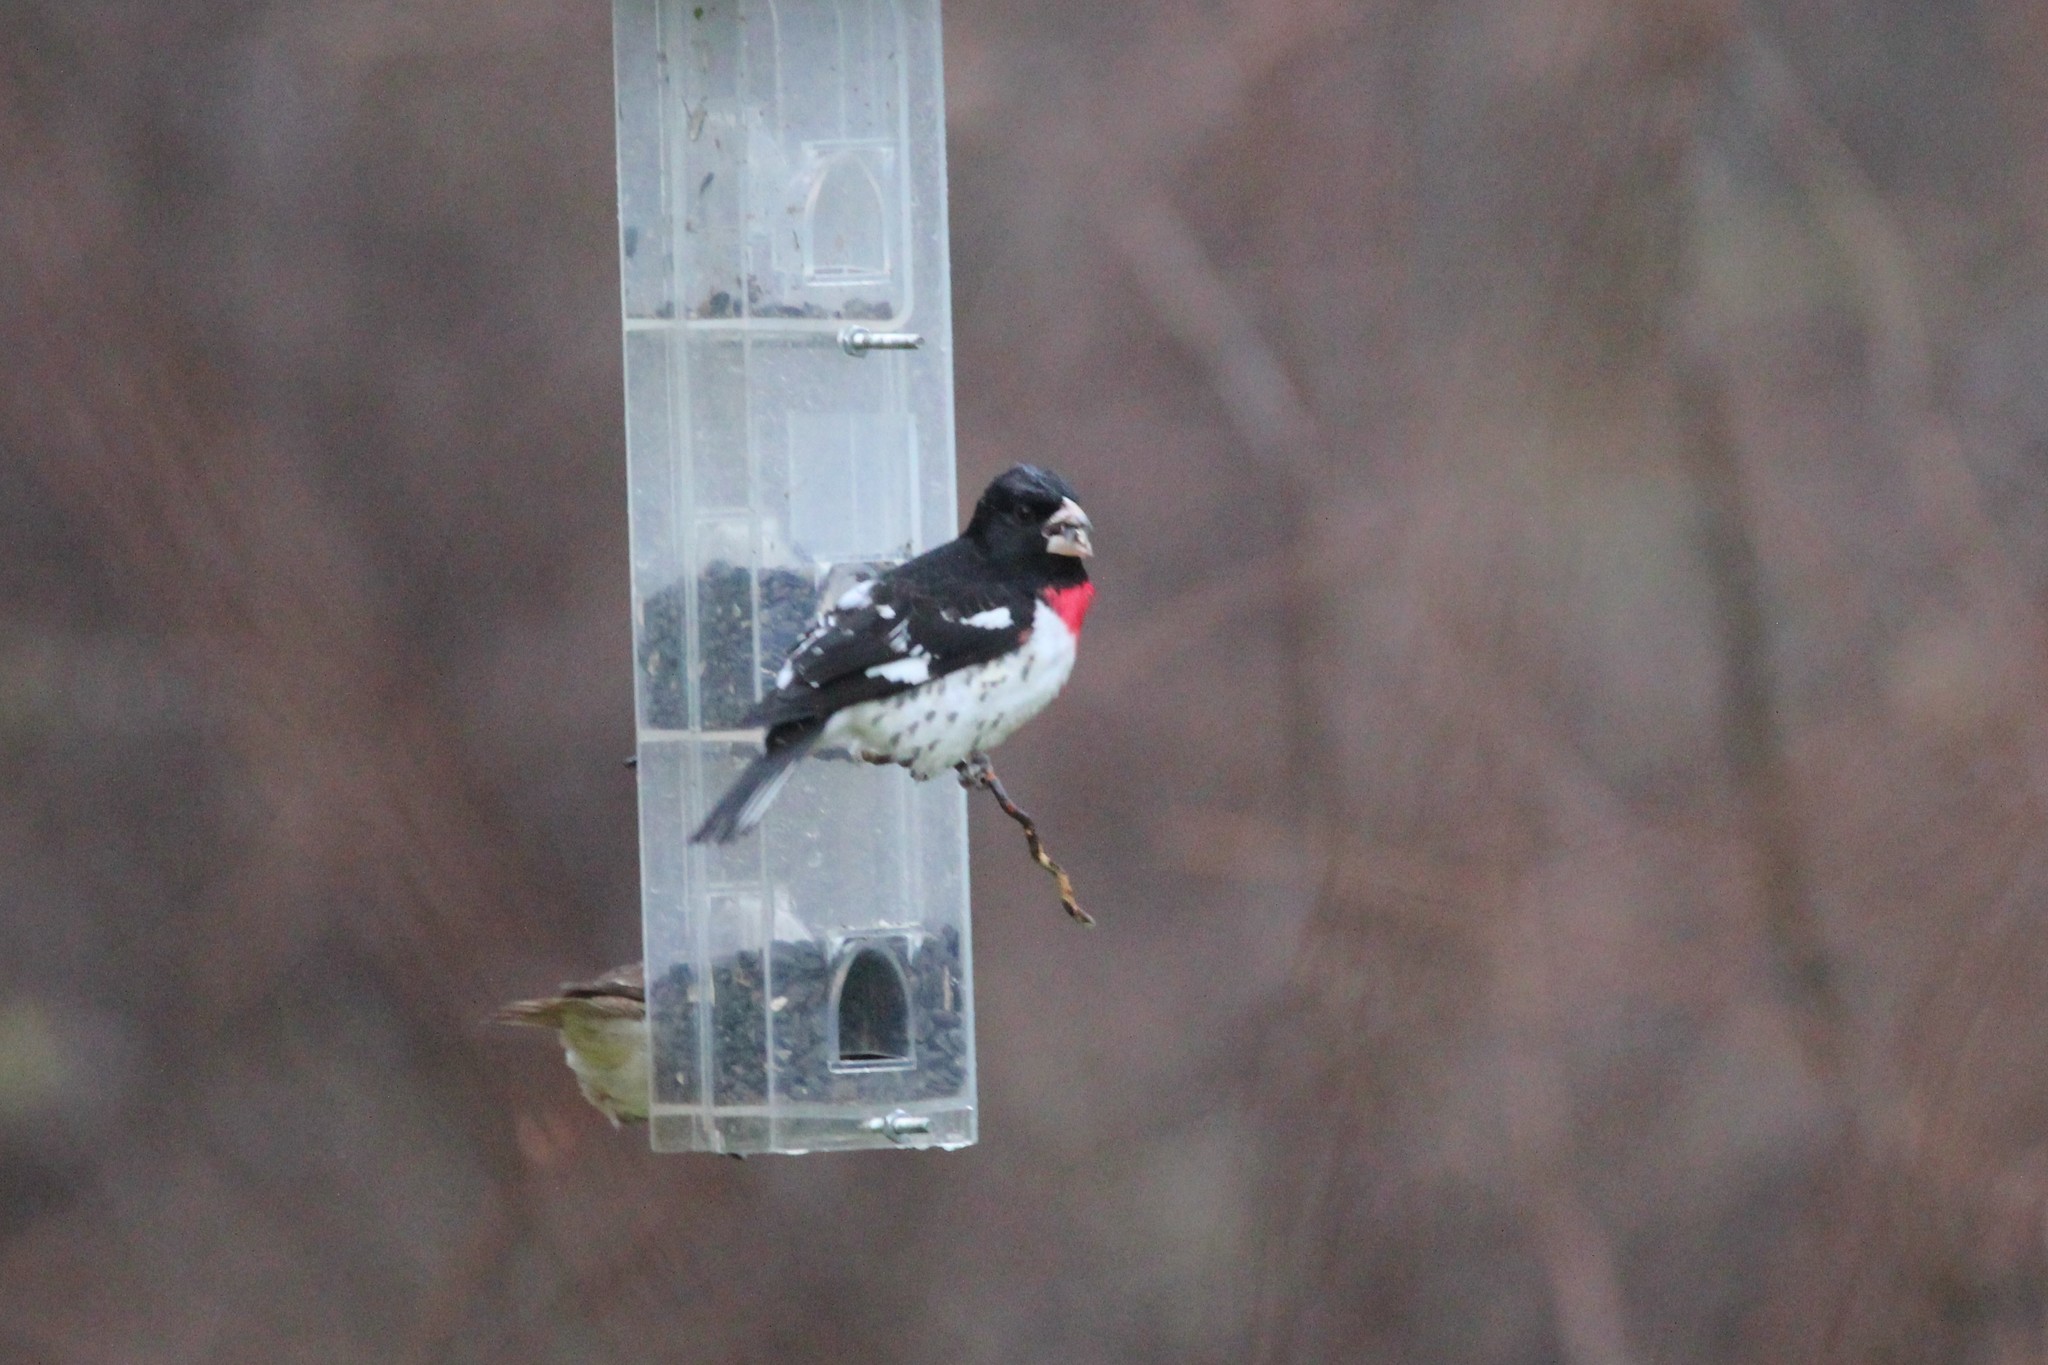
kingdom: Animalia
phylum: Chordata
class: Aves
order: Passeriformes
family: Cardinalidae
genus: Pheucticus
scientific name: Pheucticus ludovicianus
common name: Rose-breasted grosbeak
